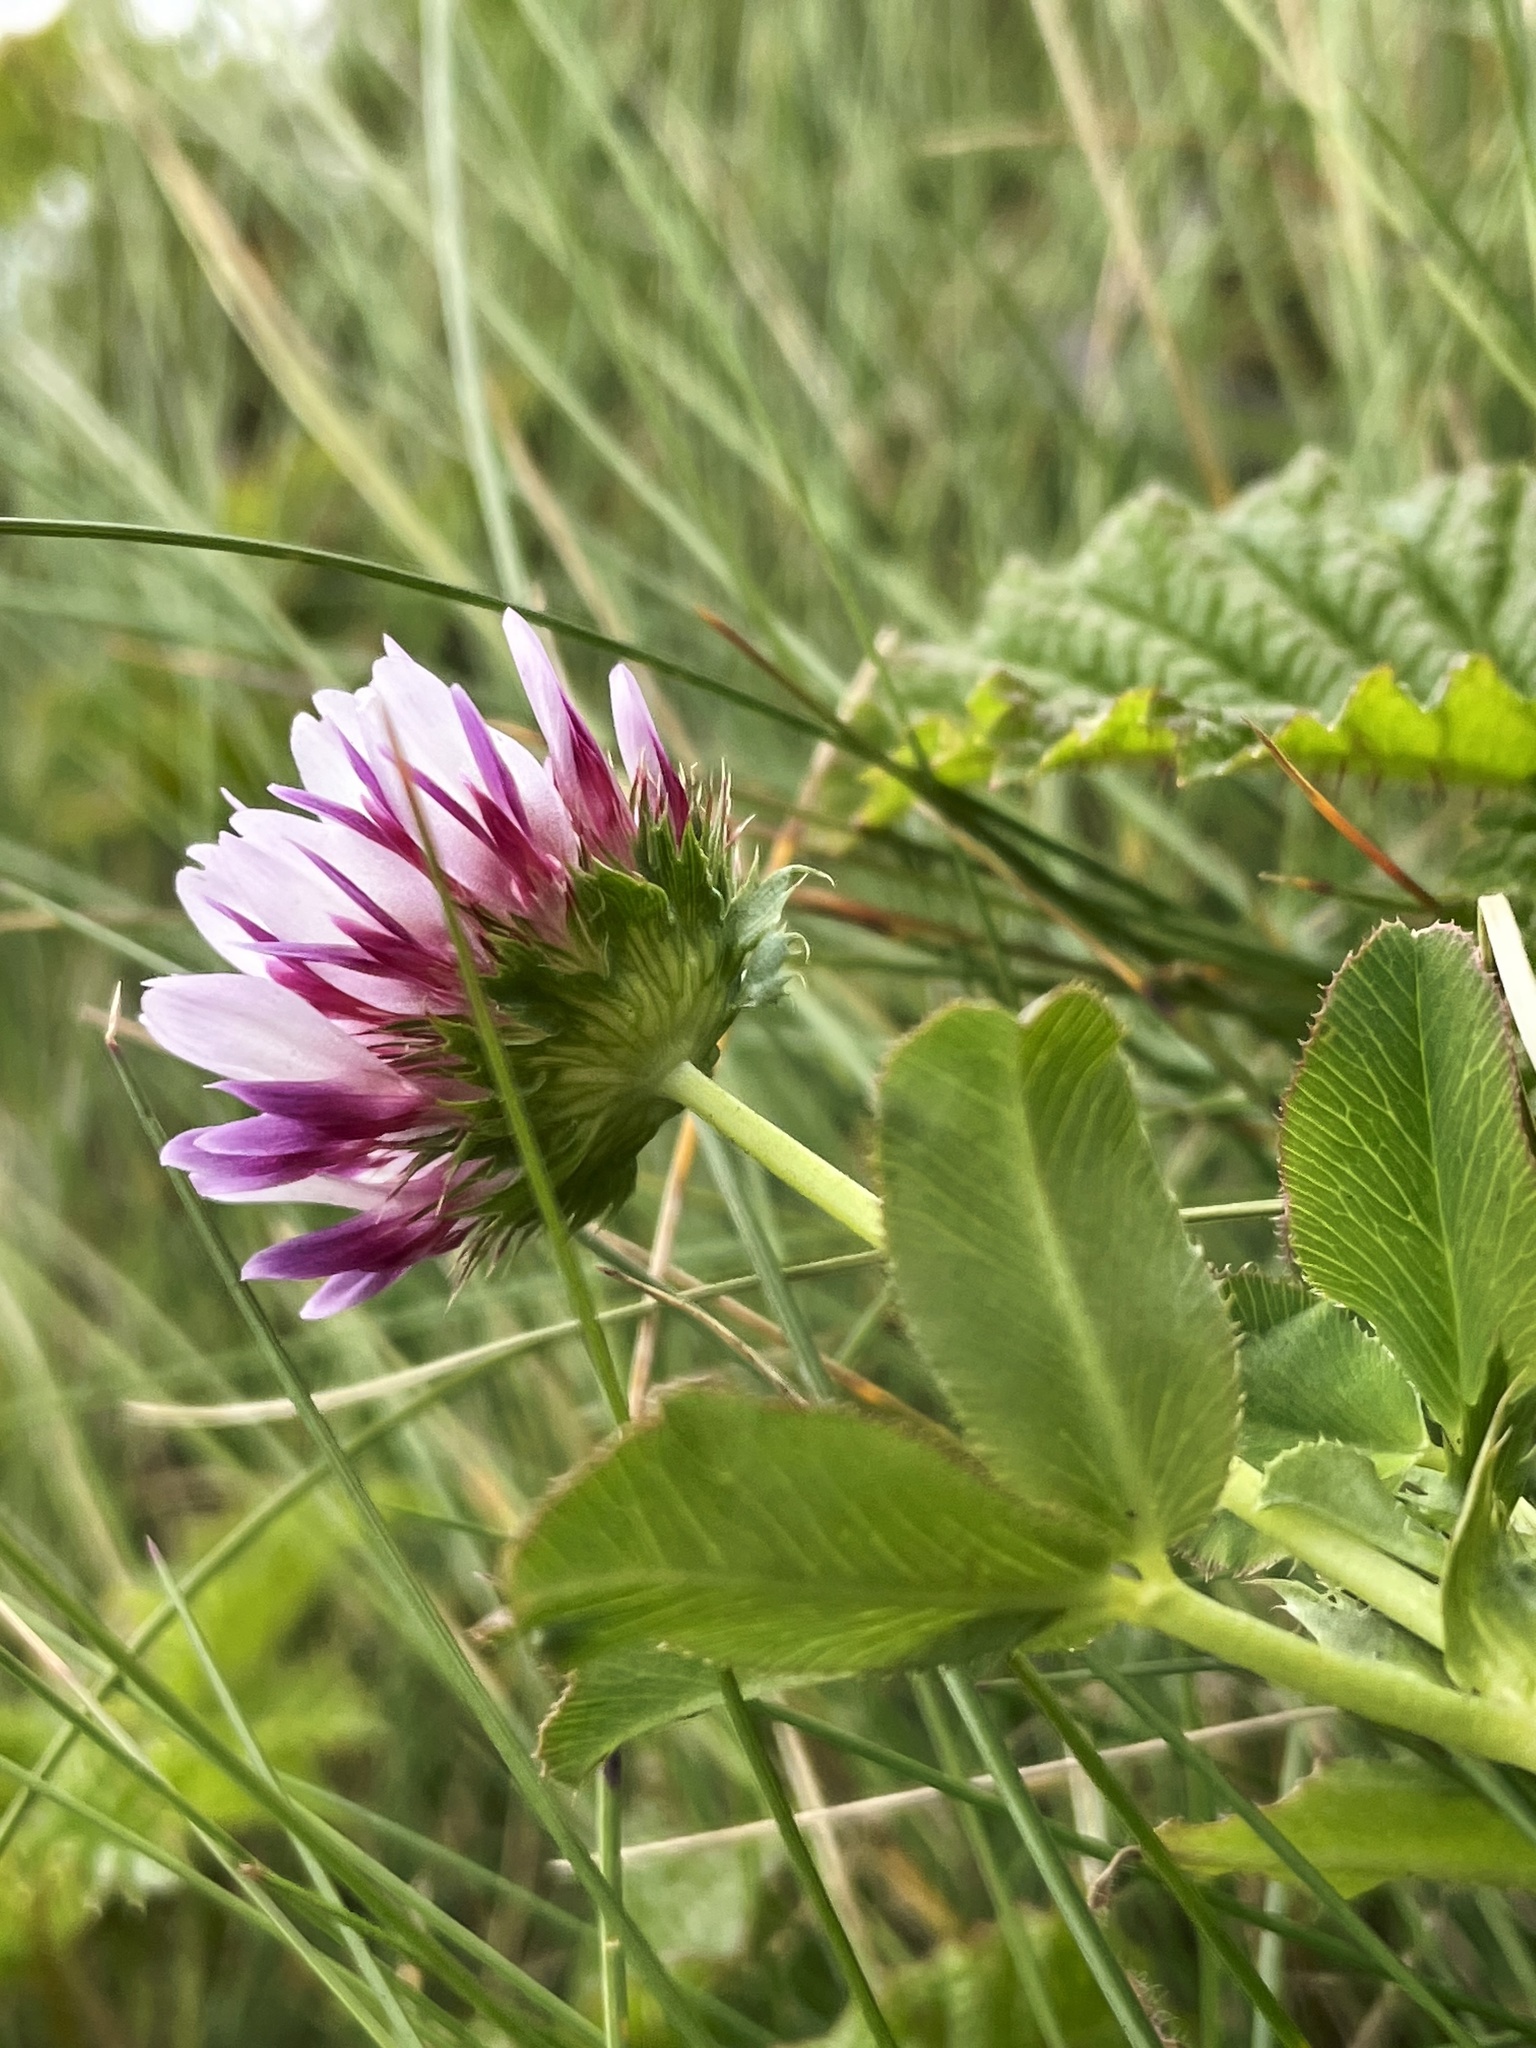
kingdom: Plantae
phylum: Tracheophyta
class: Magnoliopsida
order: Fabales
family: Fabaceae
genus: Trifolium
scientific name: Trifolium wormskioldii
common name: Springbank clover
